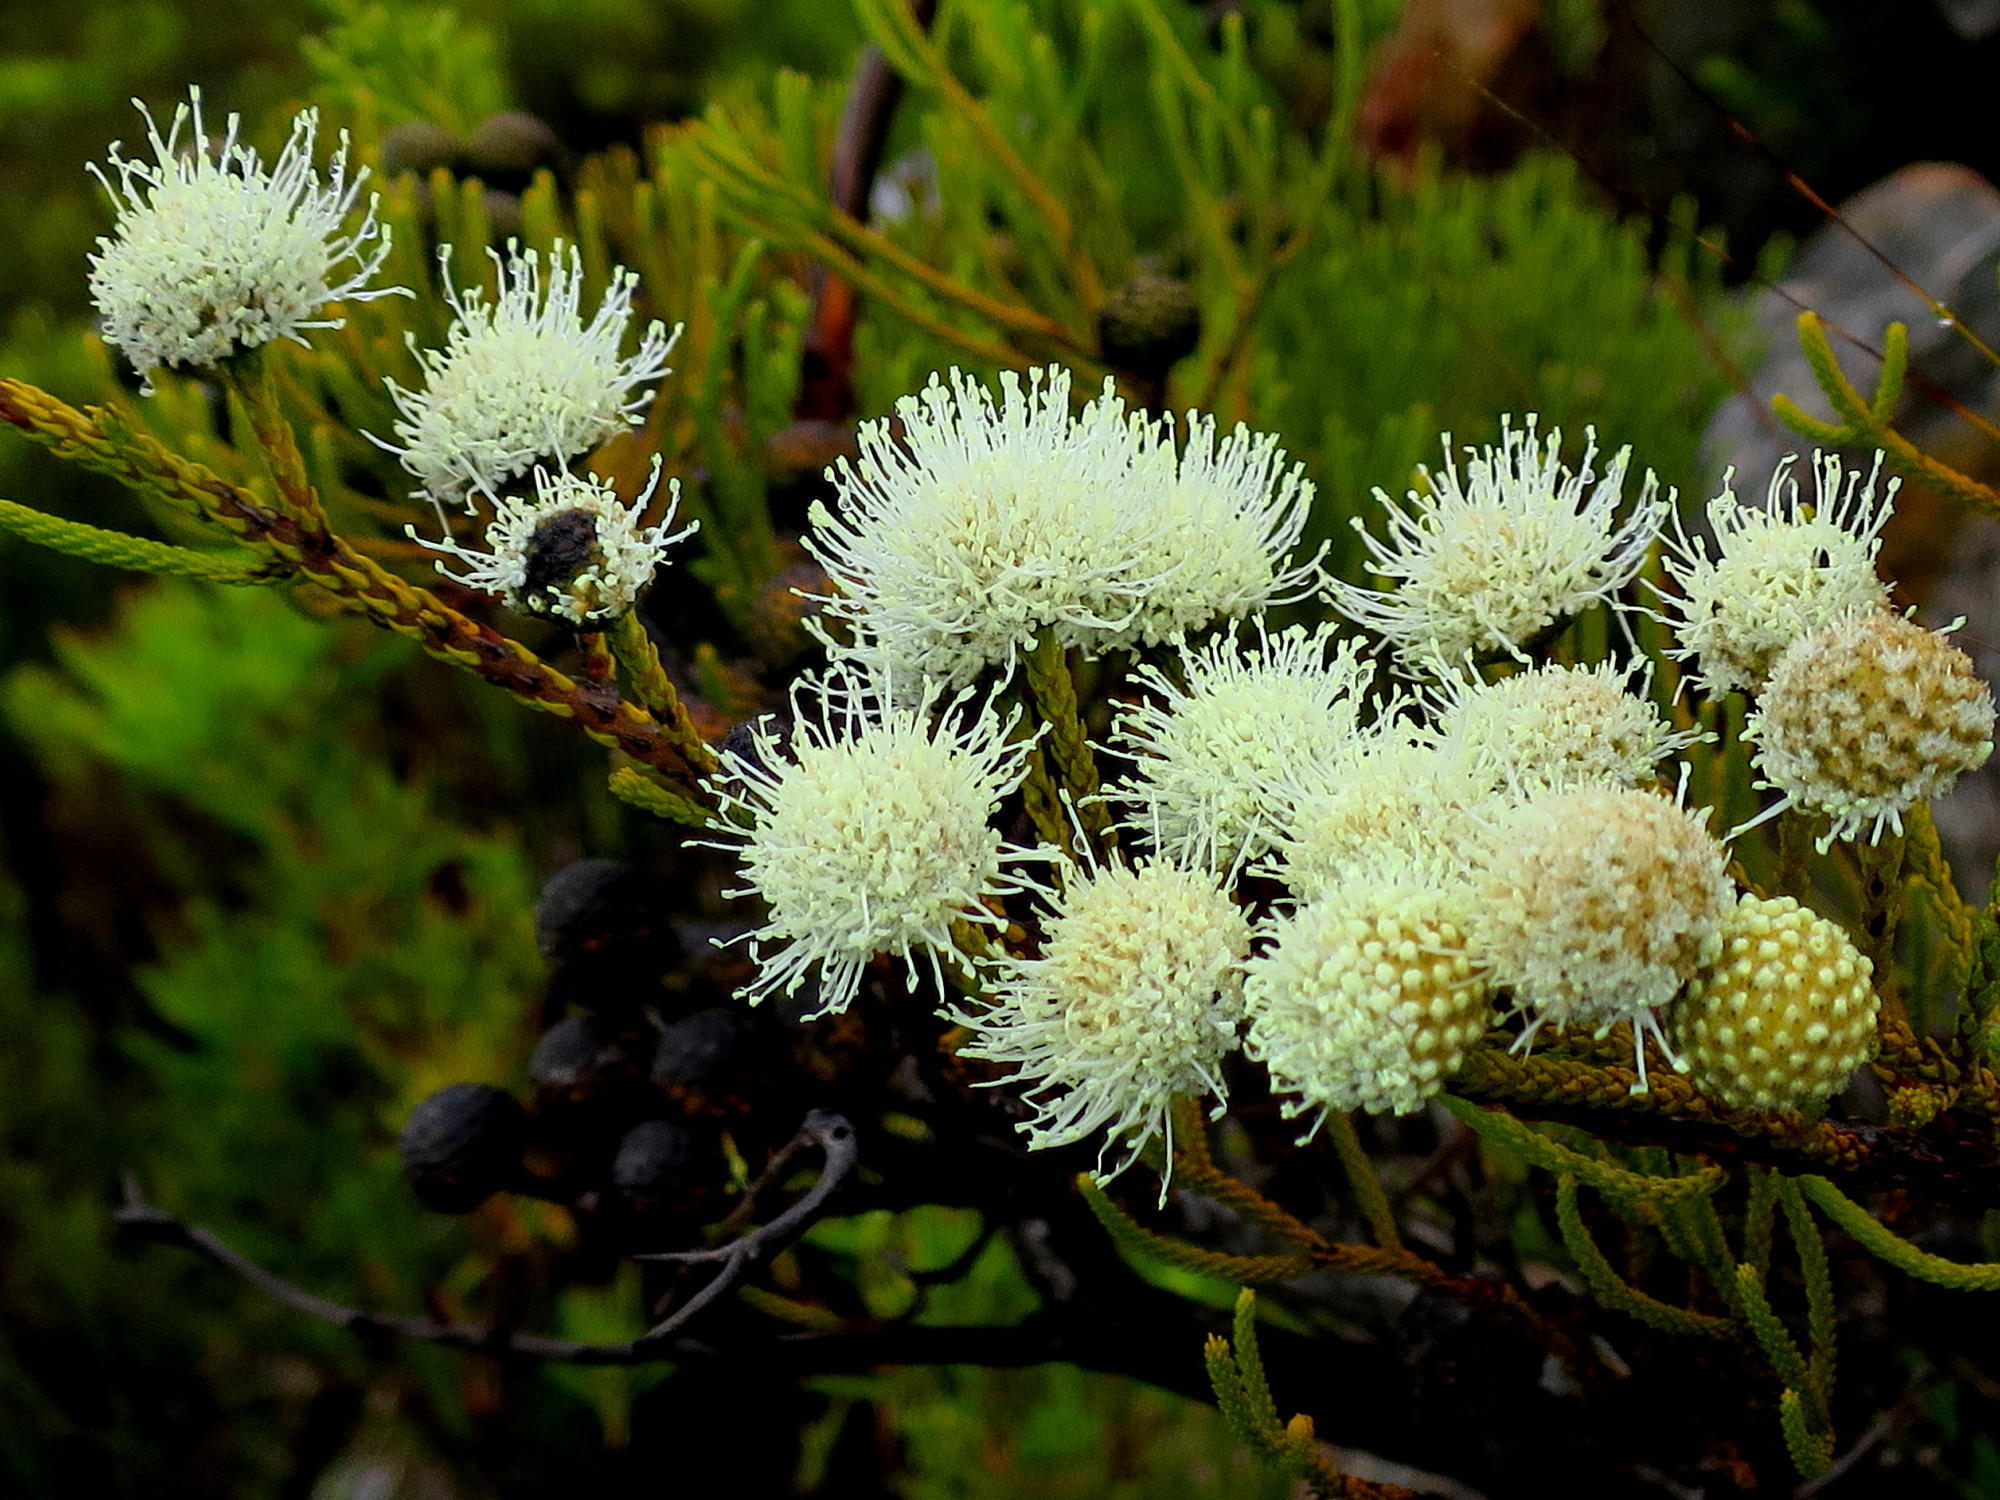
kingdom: Plantae
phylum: Tracheophyta
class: Magnoliopsida
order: Bruniales
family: Bruniaceae
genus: Brunia
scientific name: Brunia noduliflora
